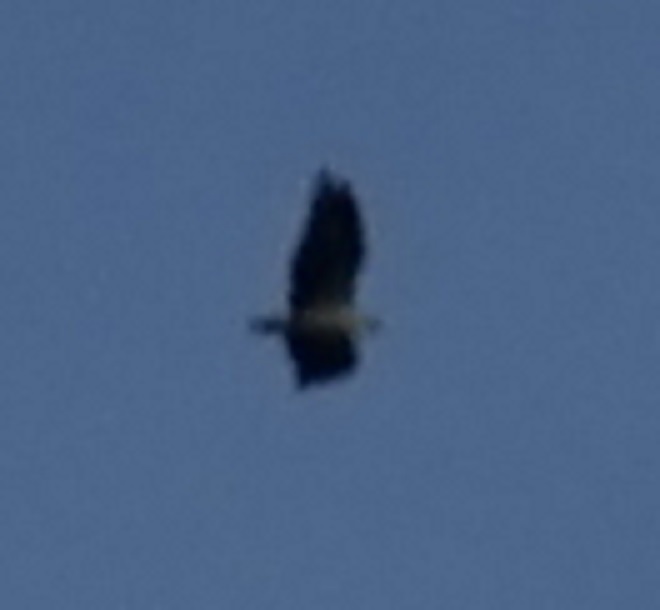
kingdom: Animalia
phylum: Chordata
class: Aves
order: Accipitriformes
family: Accipitridae
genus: Haliaeetus
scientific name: Haliaeetus leucogaster
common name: White-bellied sea eagle
